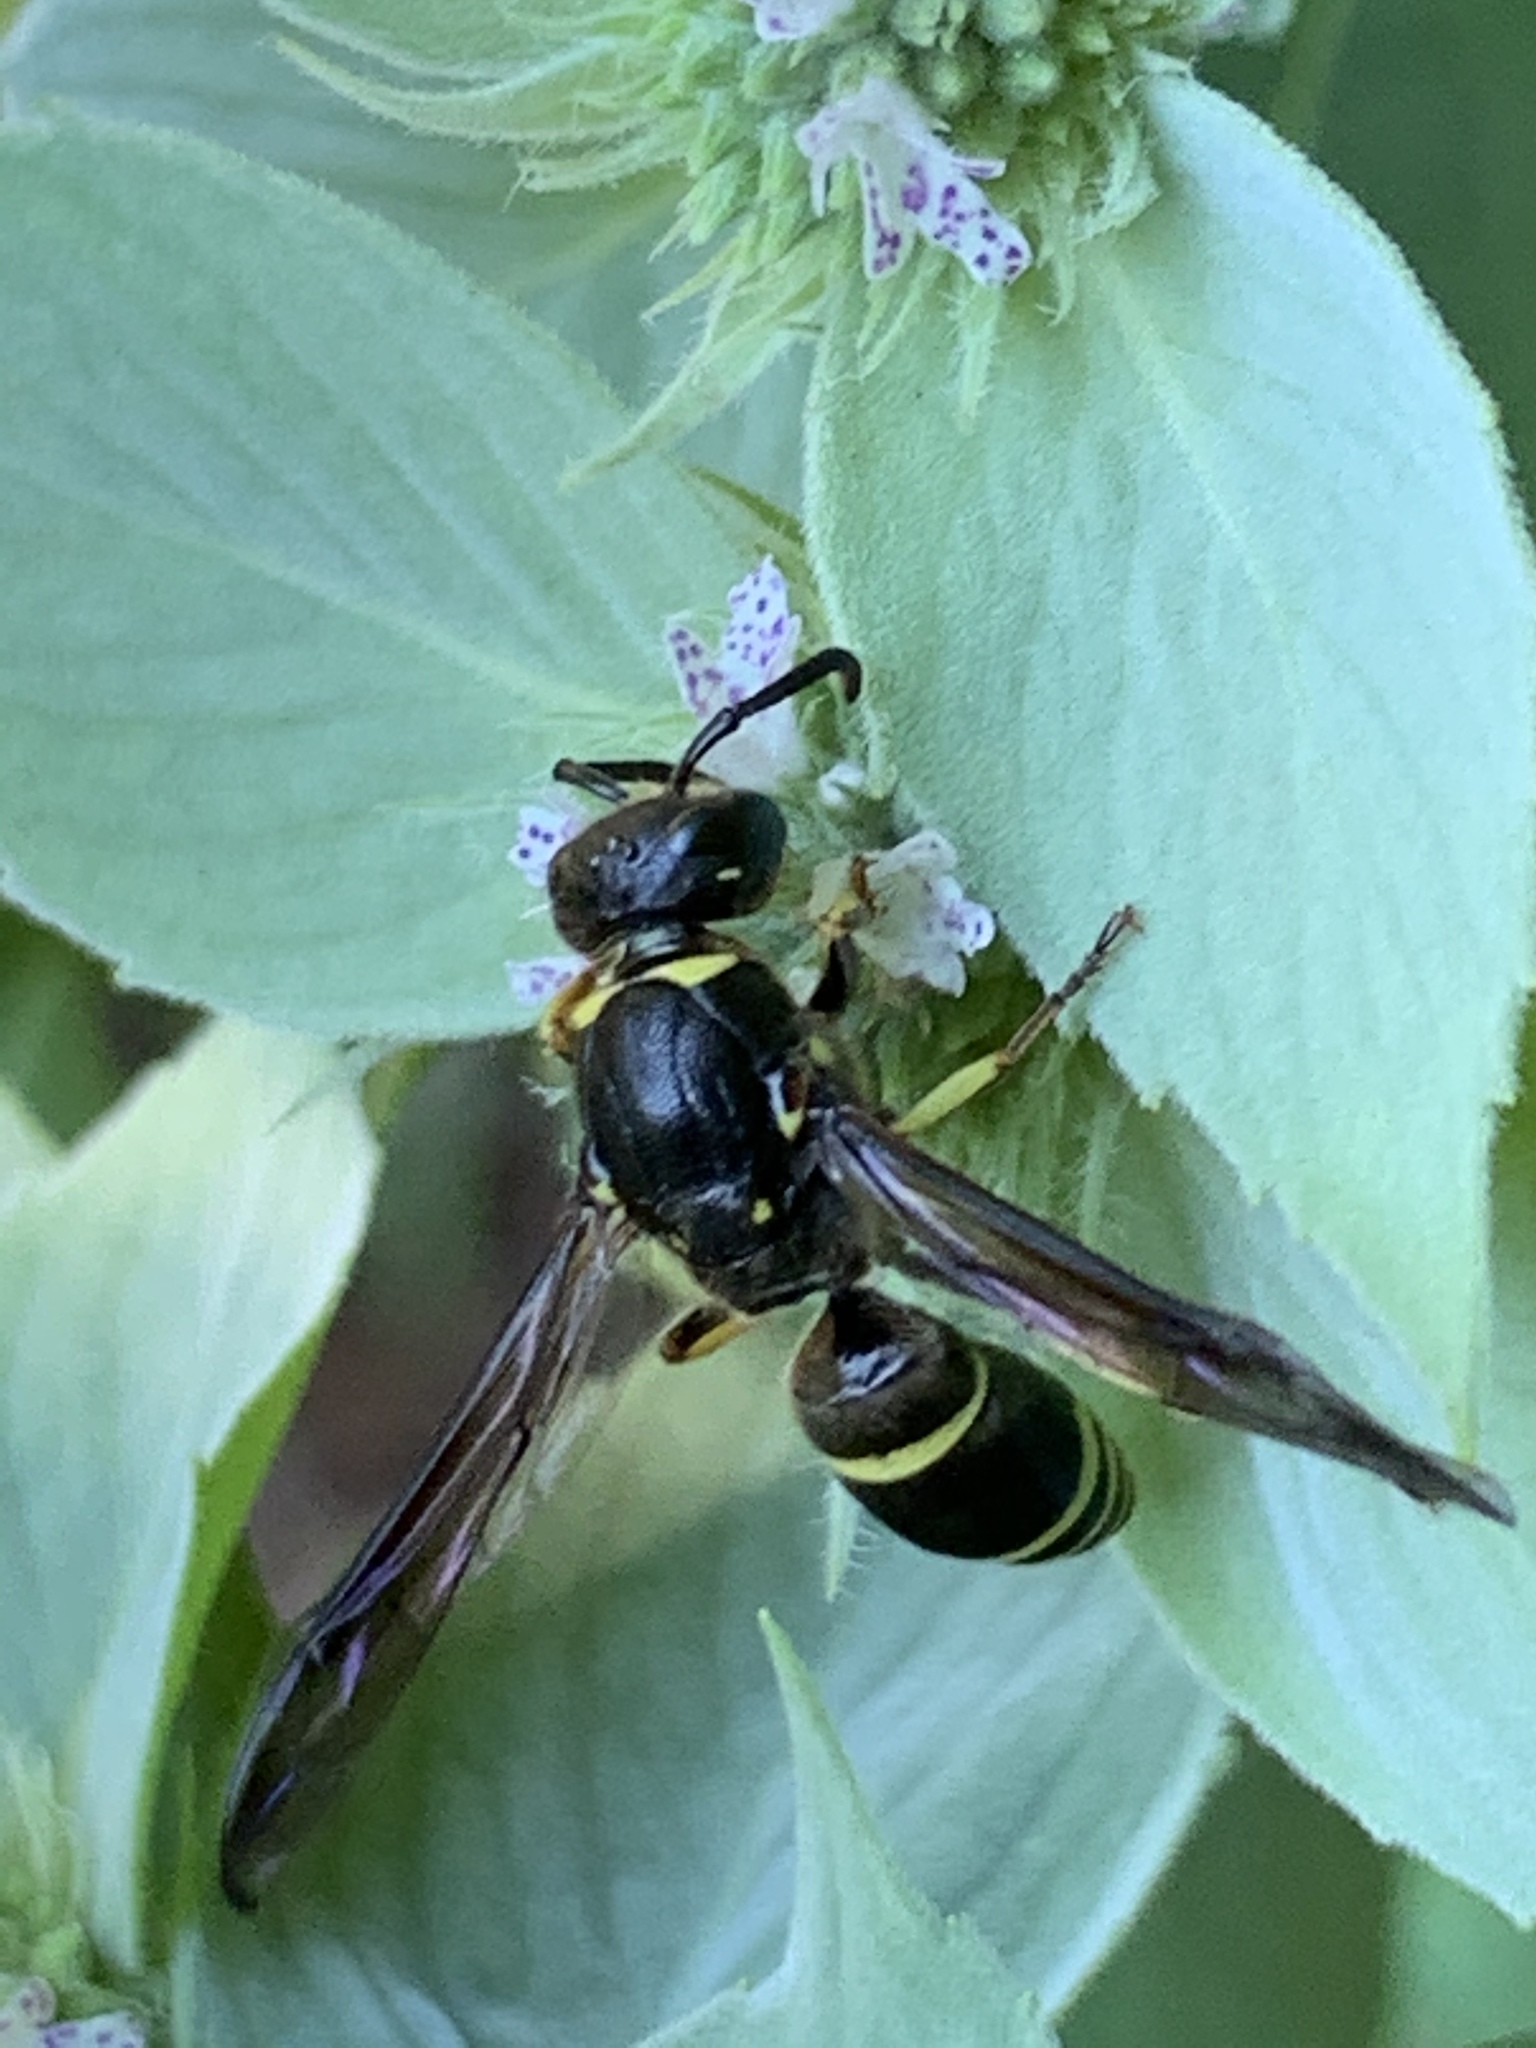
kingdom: Animalia
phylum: Arthropoda
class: Insecta
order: Hymenoptera
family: Vespidae
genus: Ancistrocerus
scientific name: Ancistrocerus
